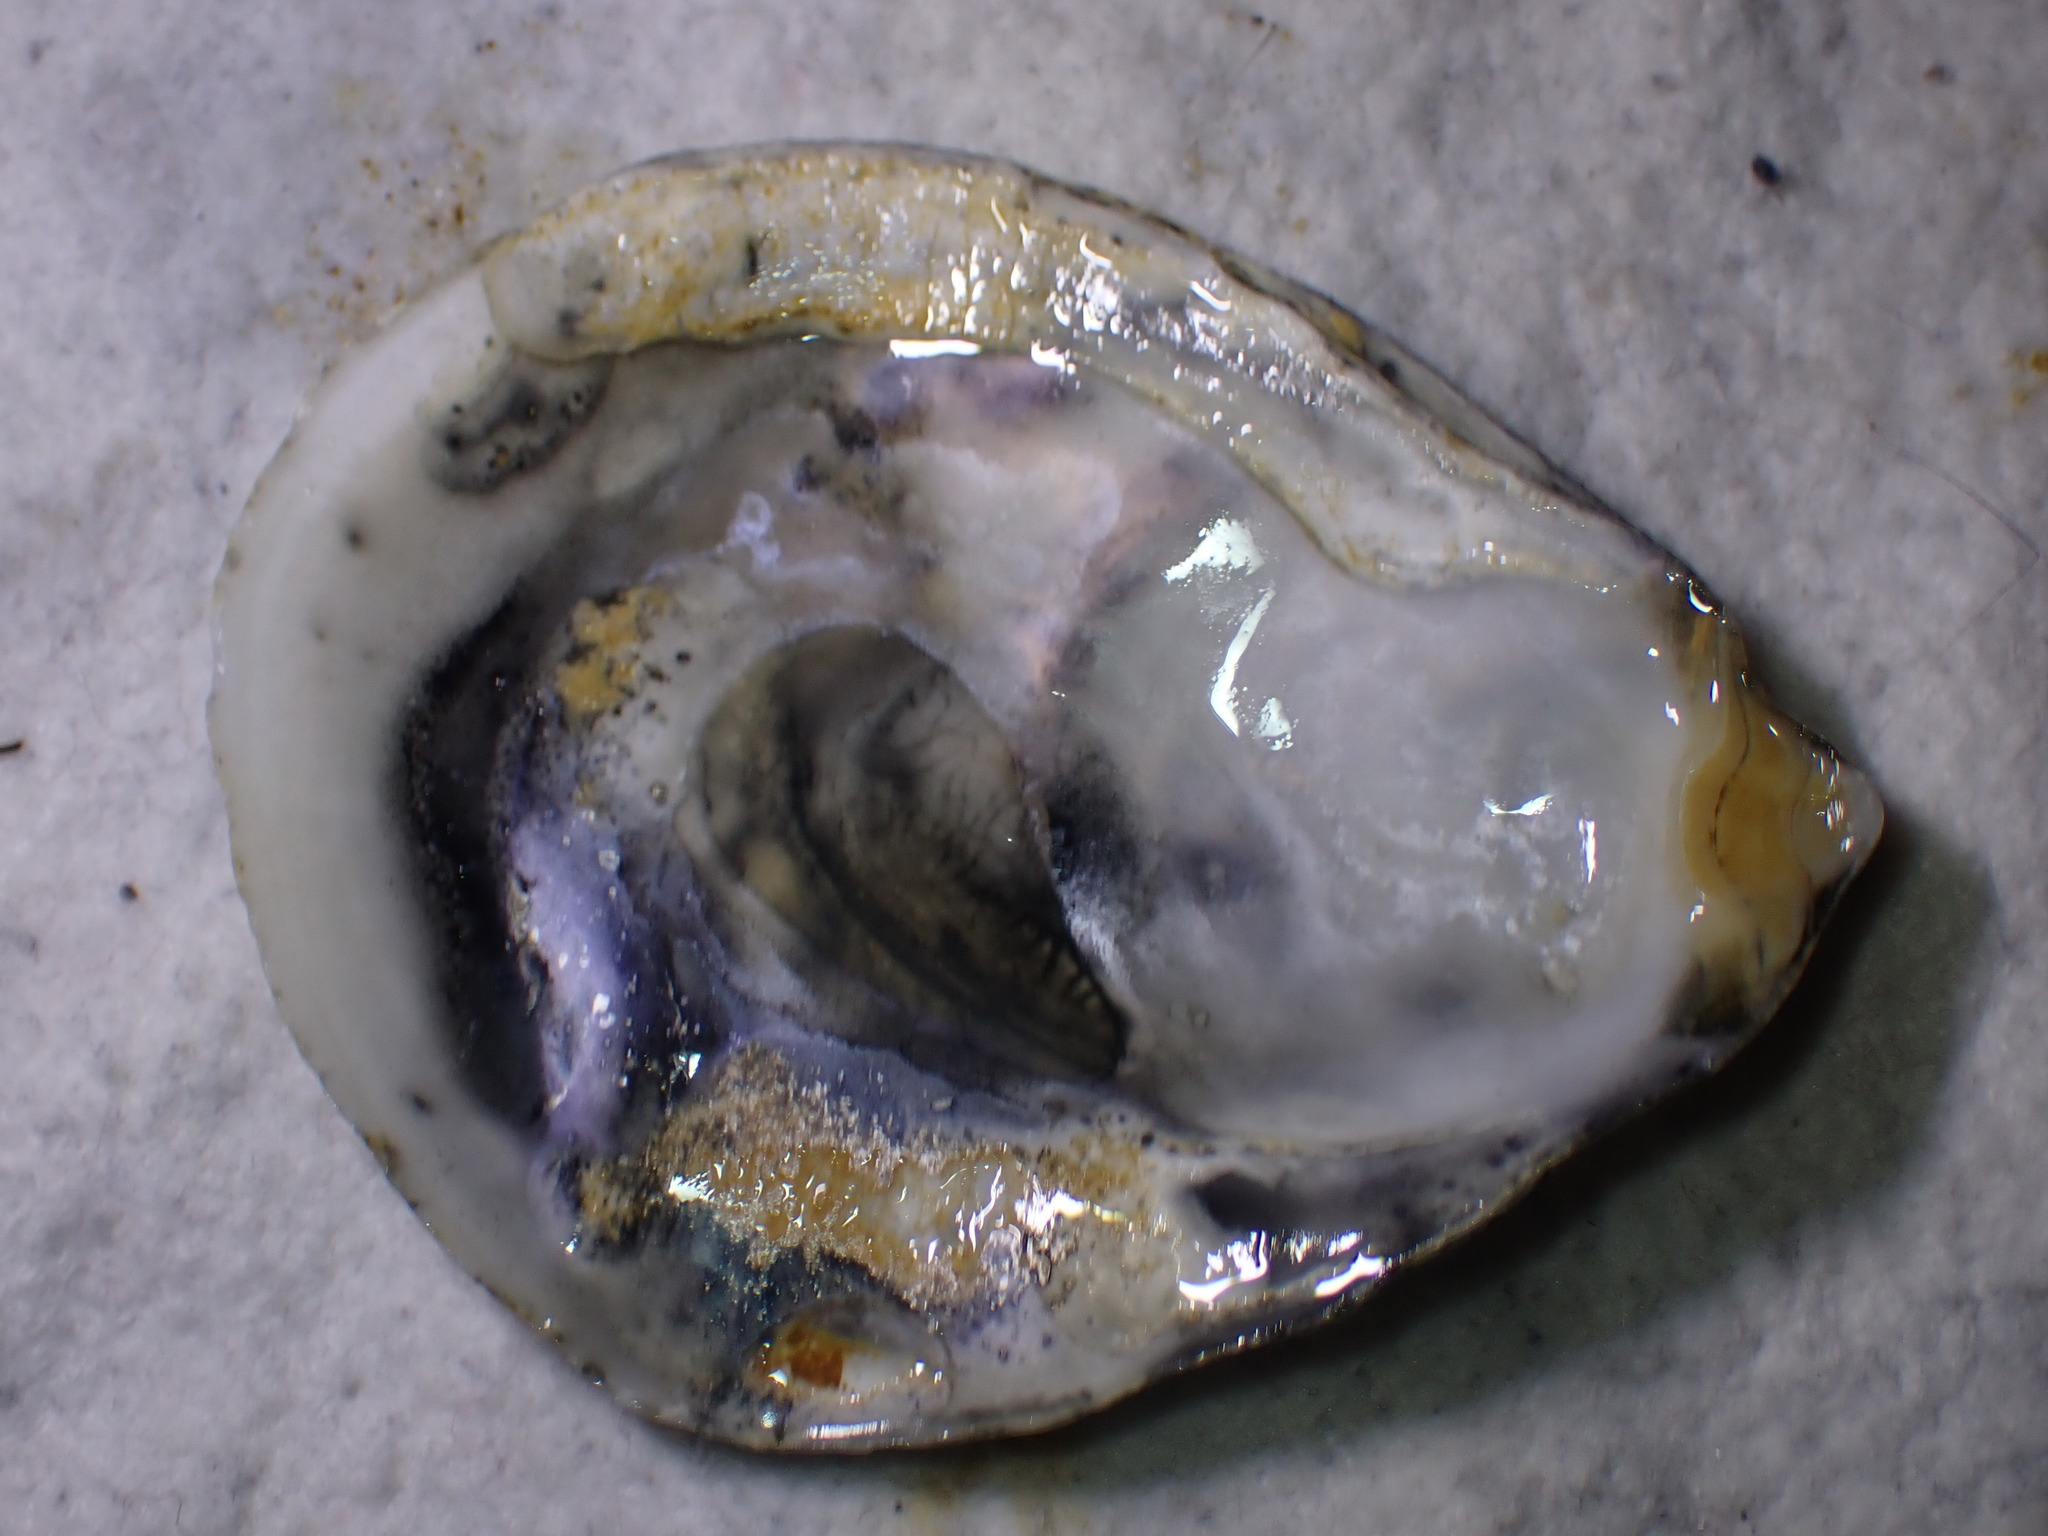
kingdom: Animalia
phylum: Mollusca
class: Bivalvia
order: Ostreida
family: Ostreidae
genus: Ostrea
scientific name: Ostrea edulis
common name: Flat oyster
